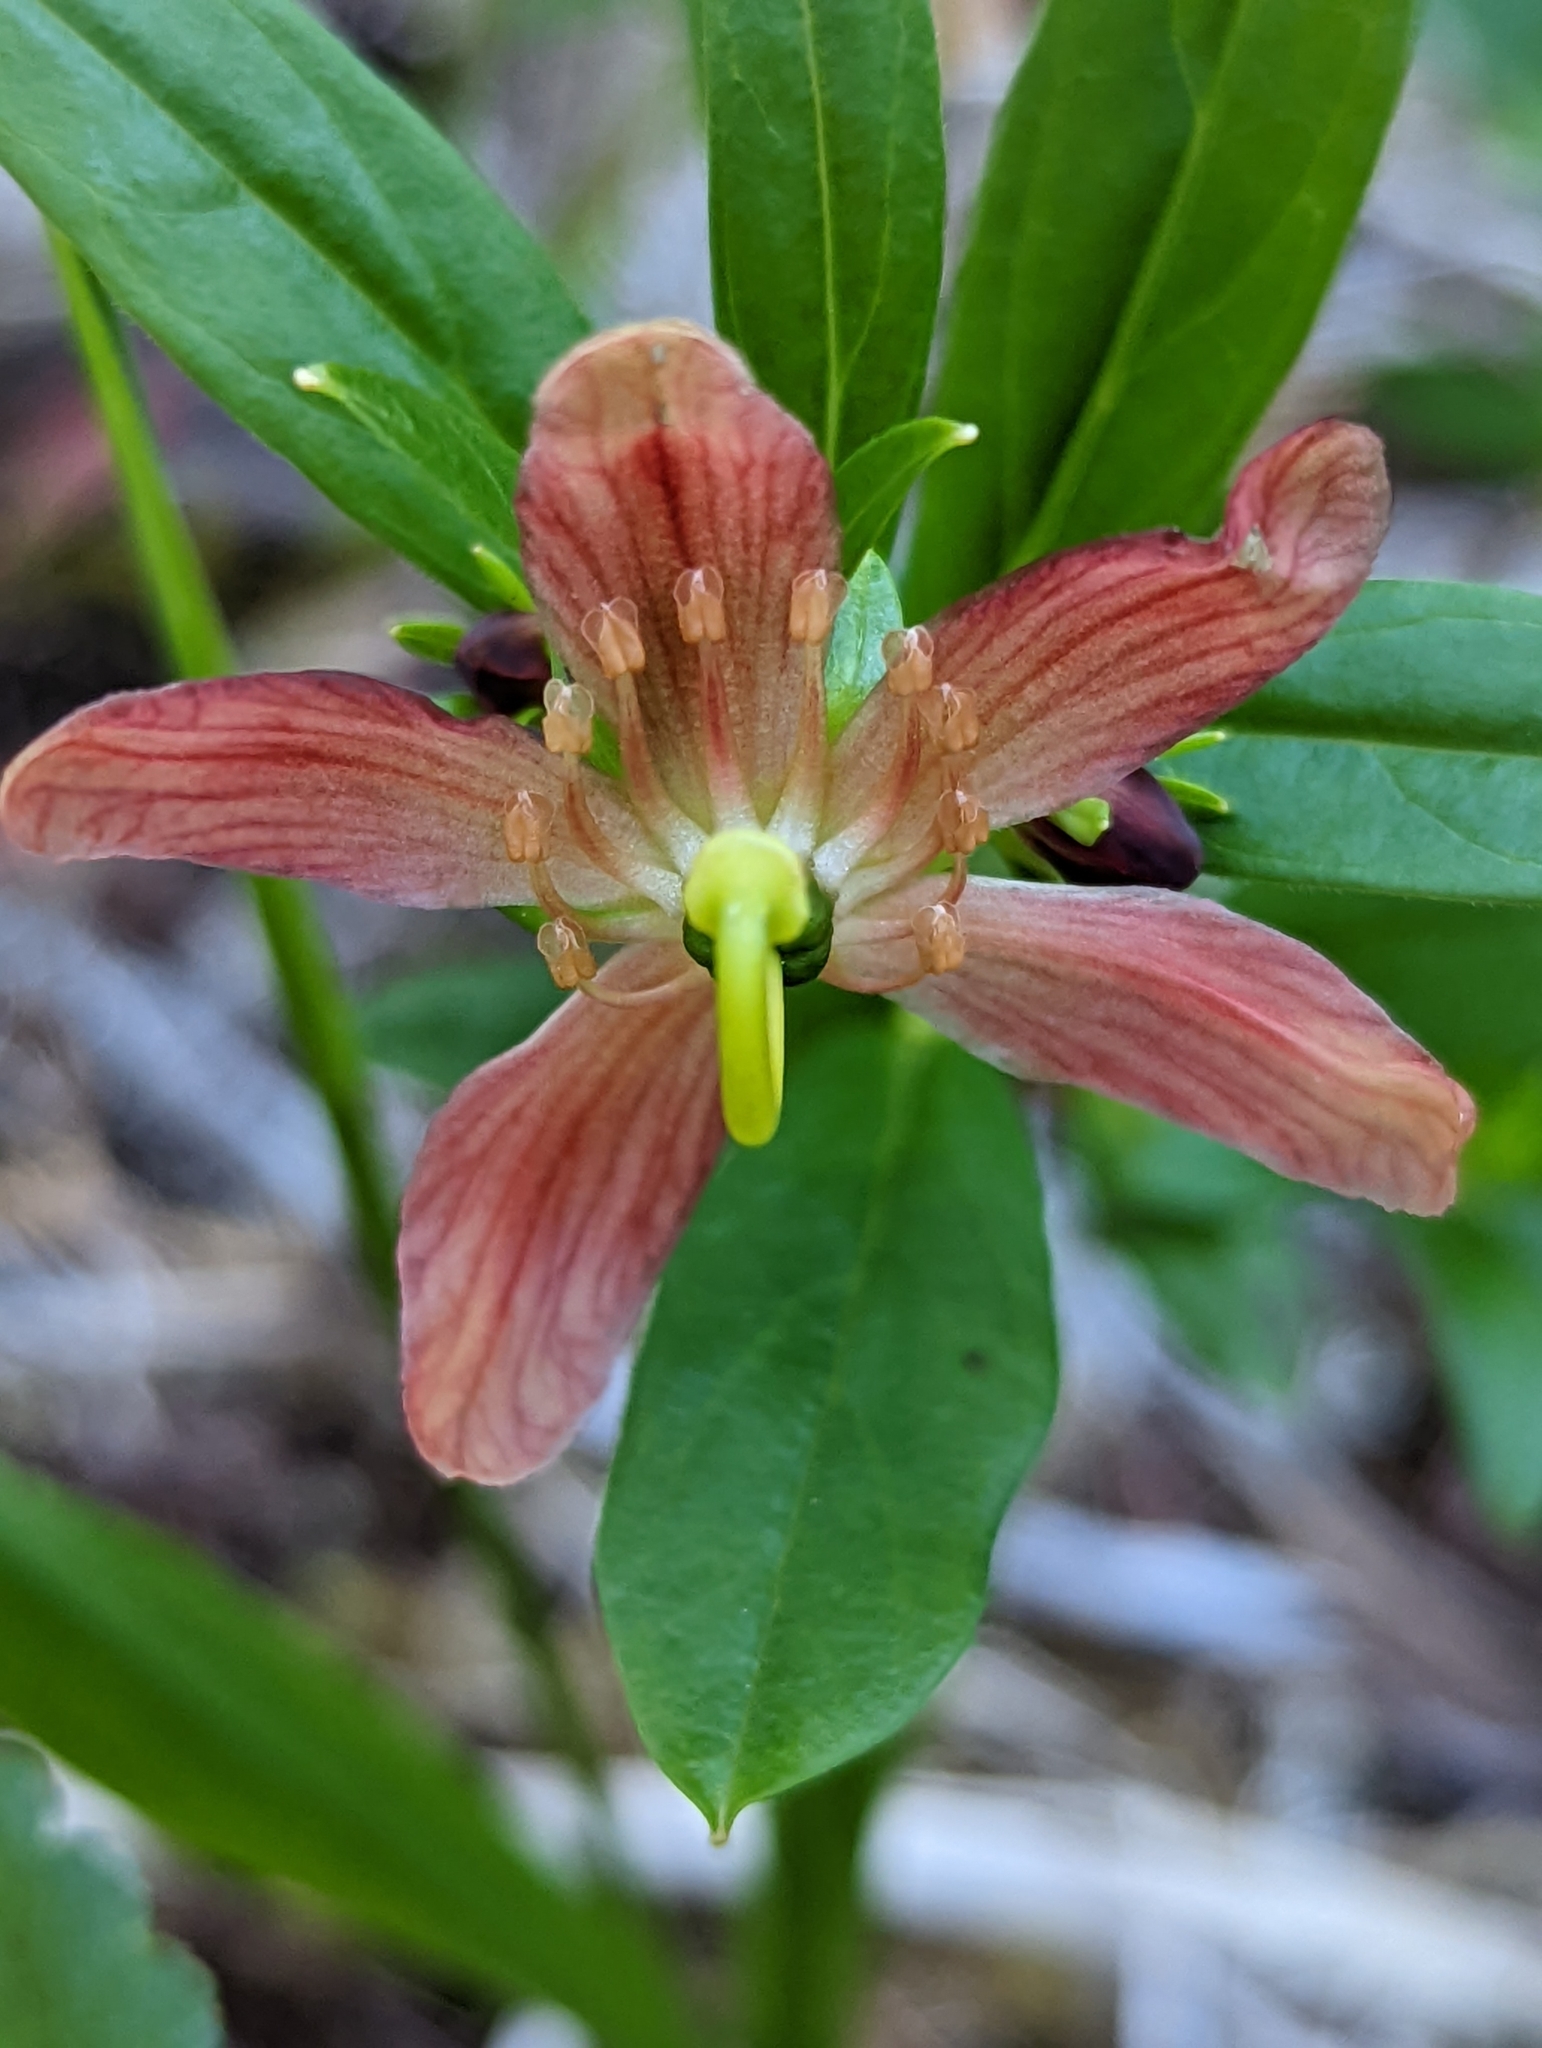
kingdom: Plantae
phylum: Tracheophyta
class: Magnoliopsida
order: Ericales
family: Ericaceae
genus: Elliottia
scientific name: Elliottia pyroliflora
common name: Copperbush
